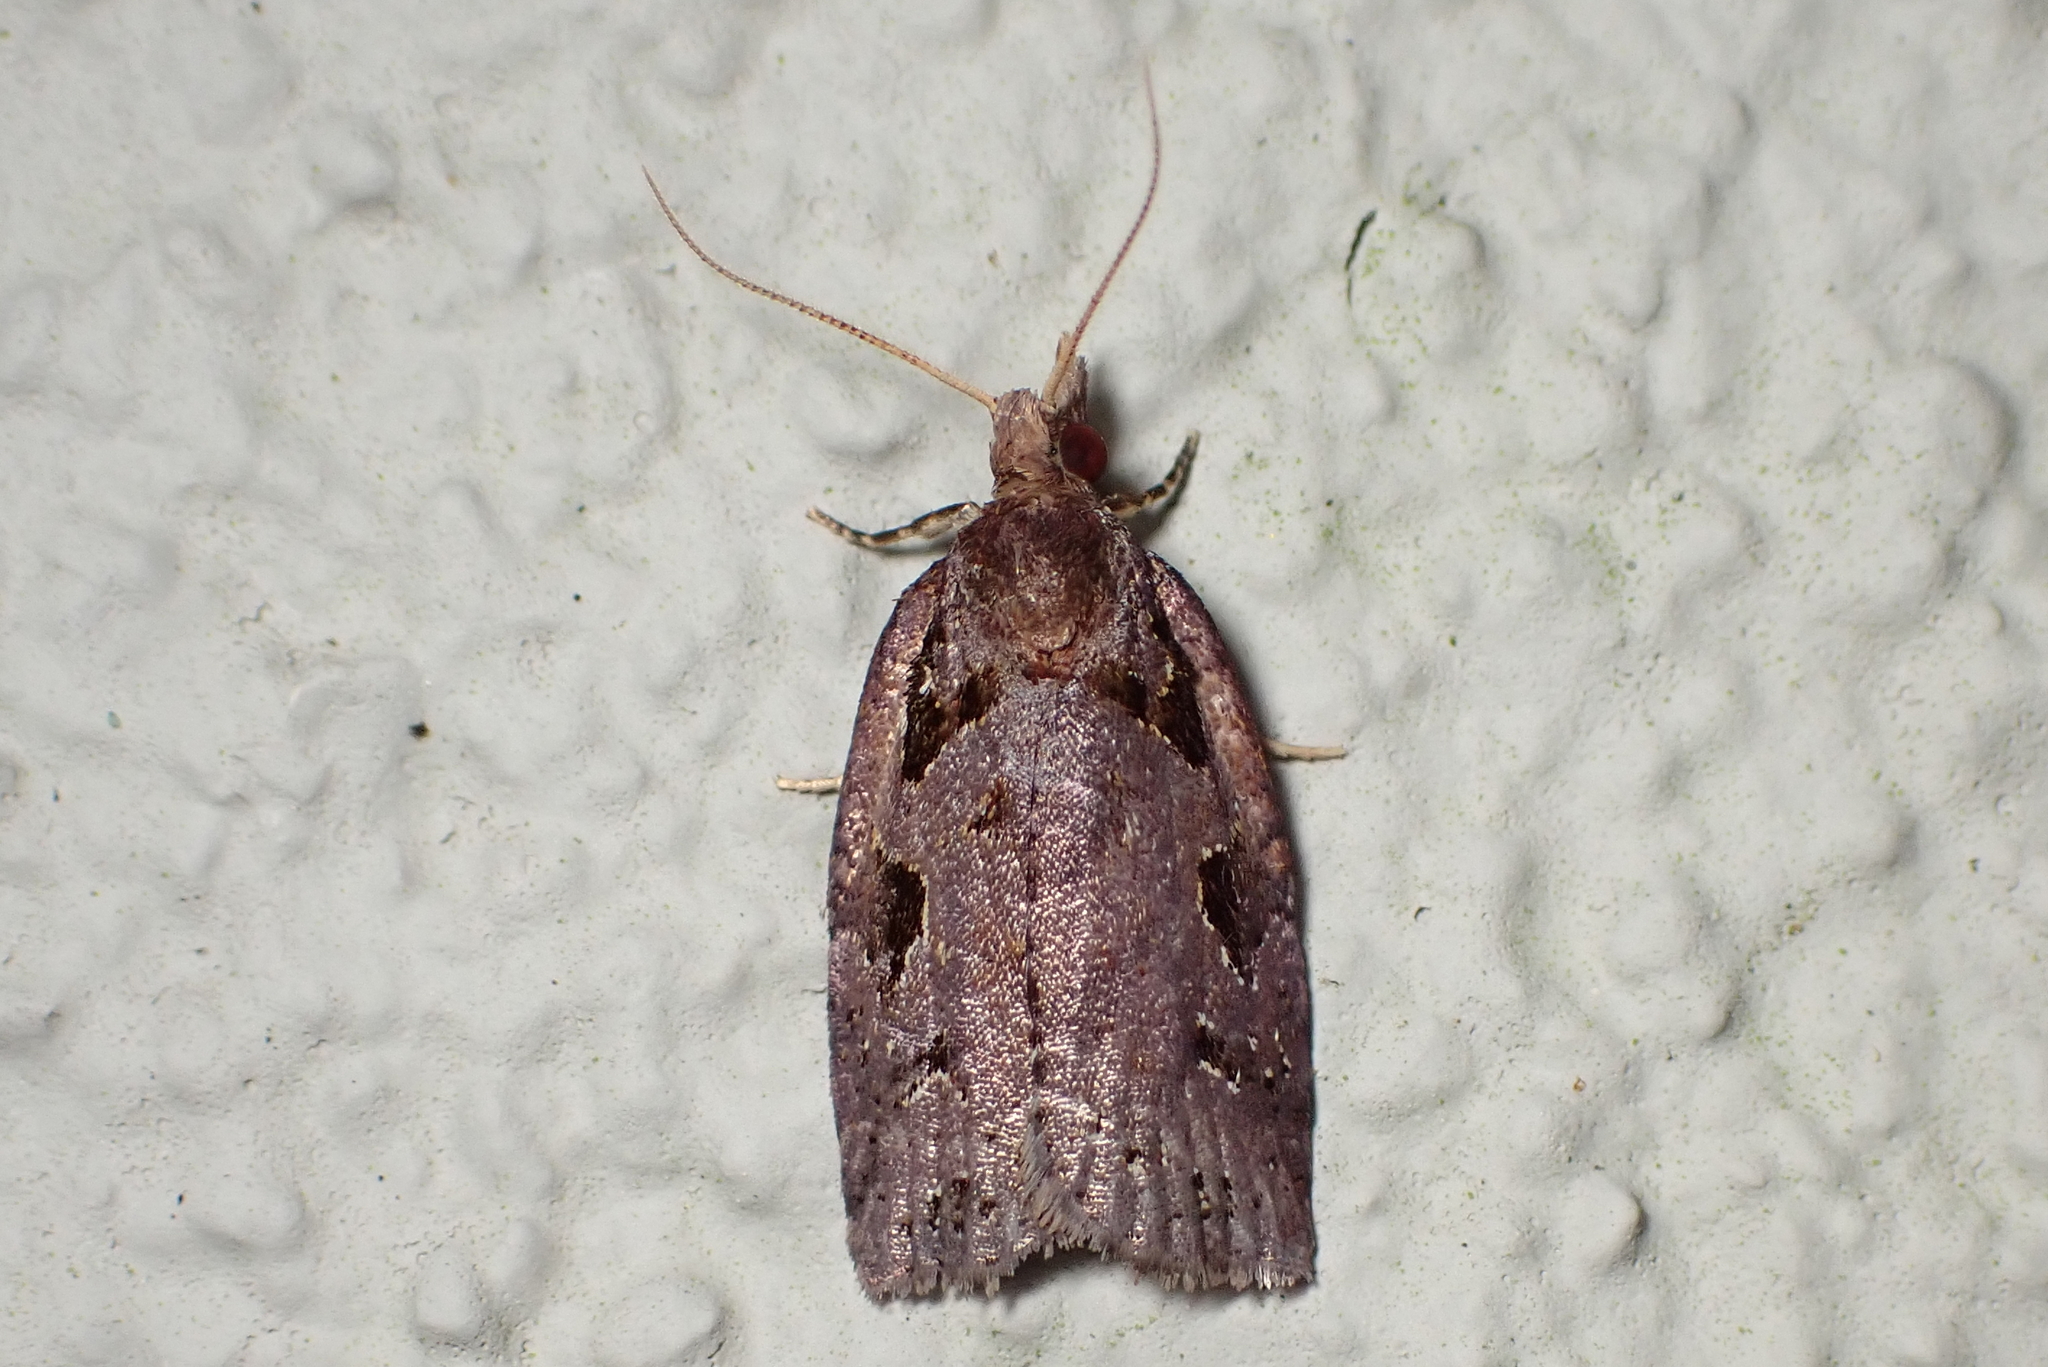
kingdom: Animalia
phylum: Arthropoda
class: Insecta
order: Lepidoptera
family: Tortricidae
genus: Ctenopseustis
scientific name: Ctenopseustis fraterna
